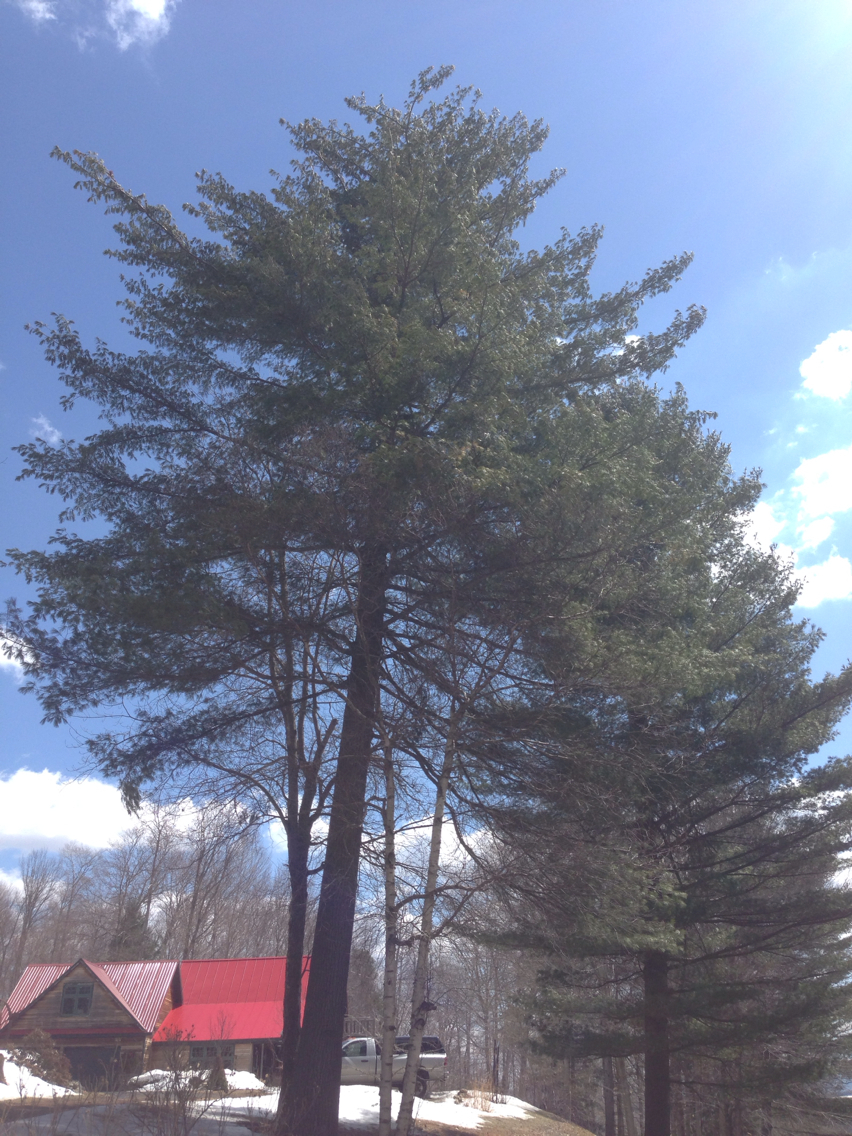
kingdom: Plantae
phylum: Tracheophyta
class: Pinopsida
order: Pinales
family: Pinaceae
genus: Pinus
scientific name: Pinus strobus
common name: Weymouth pine
